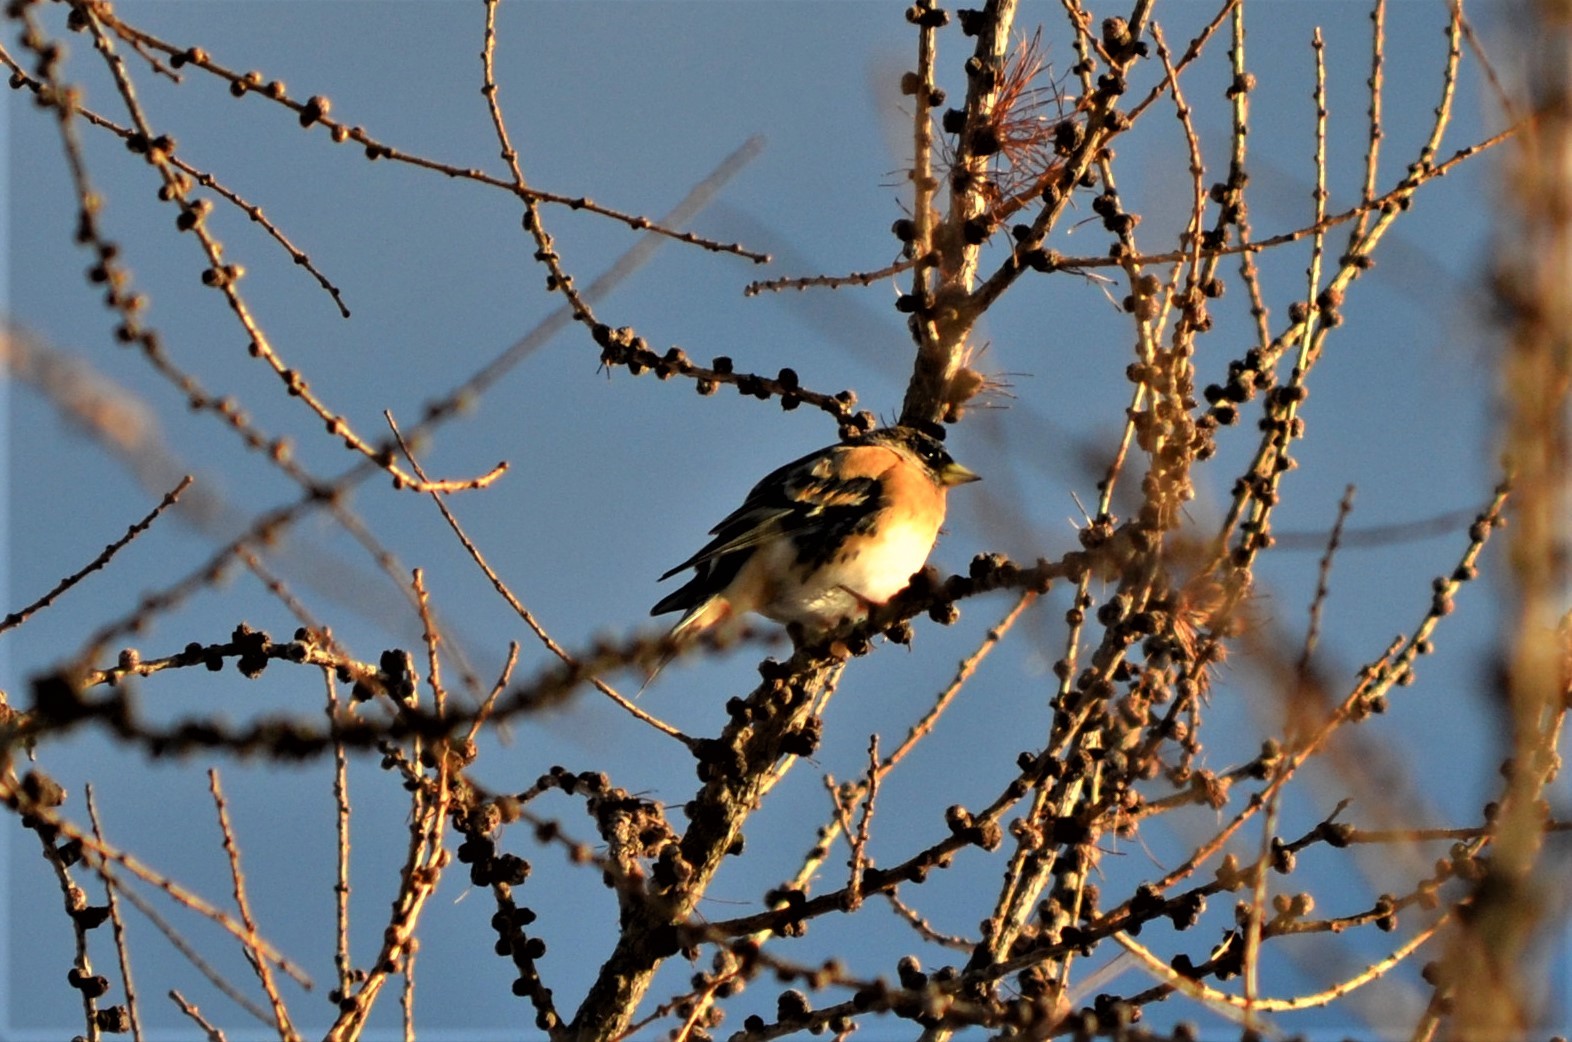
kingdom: Animalia
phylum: Chordata
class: Aves
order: Passeriformes
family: Fringillidae
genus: Fringilla
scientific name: Fringilla montifringilla
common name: Brambling
